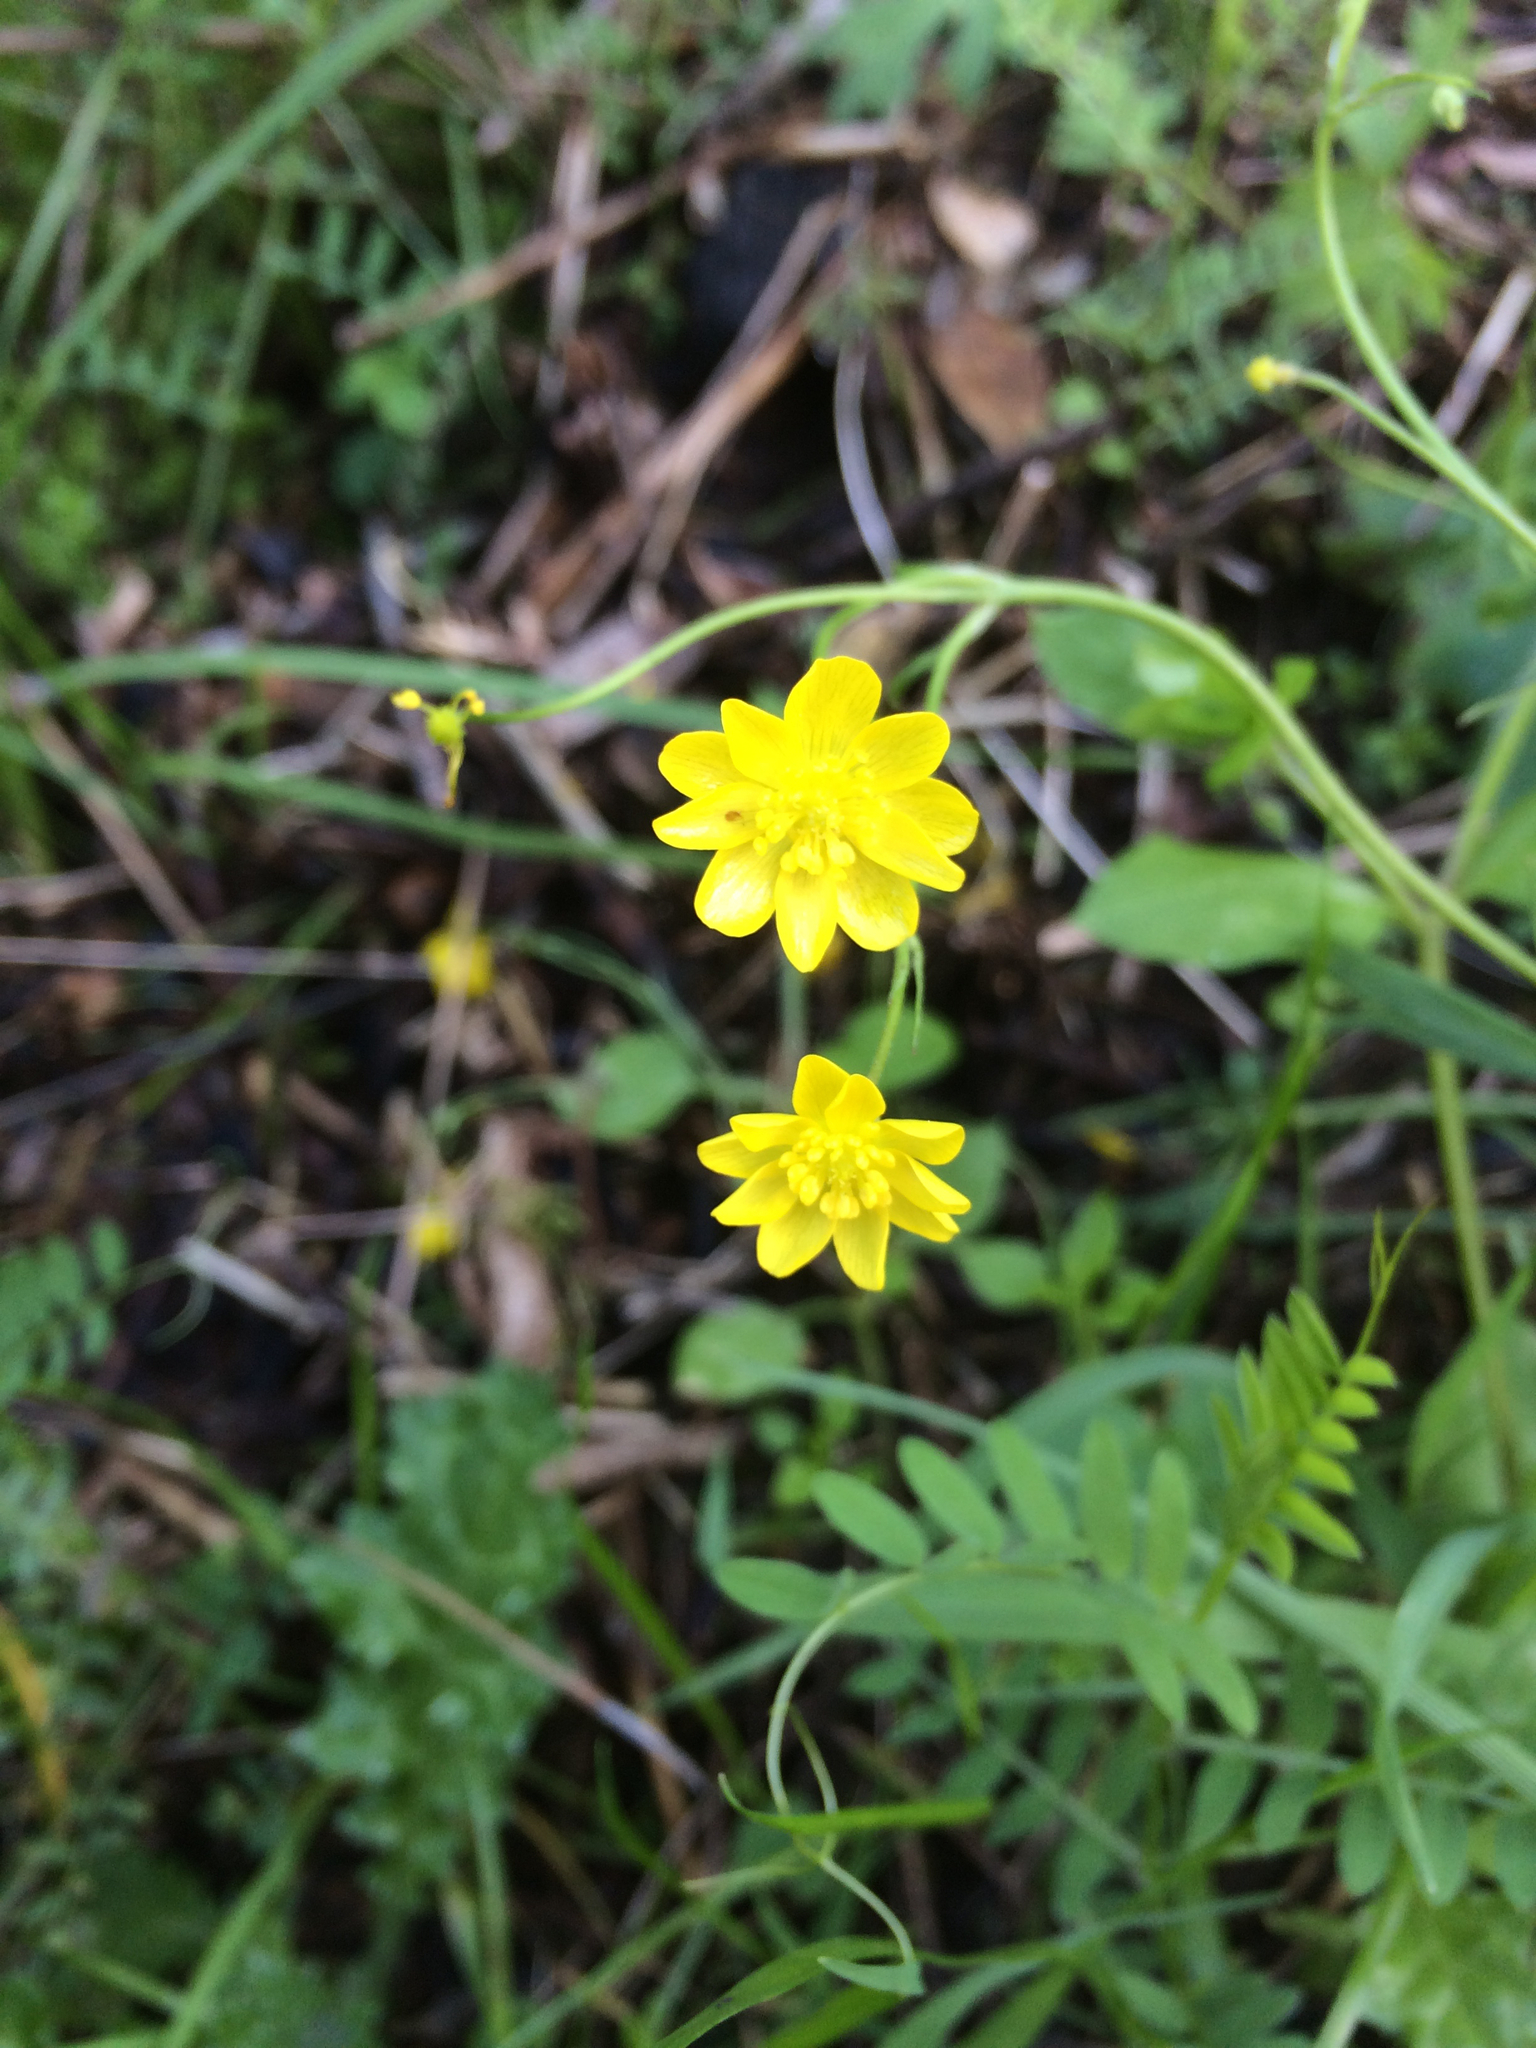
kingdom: Plantae
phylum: Tracheophyta
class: Magnoliopsida
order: Ranunculales
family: Ranunculaceae
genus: Ranunculus
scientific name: Ranunculus californicus
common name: California buttercup
